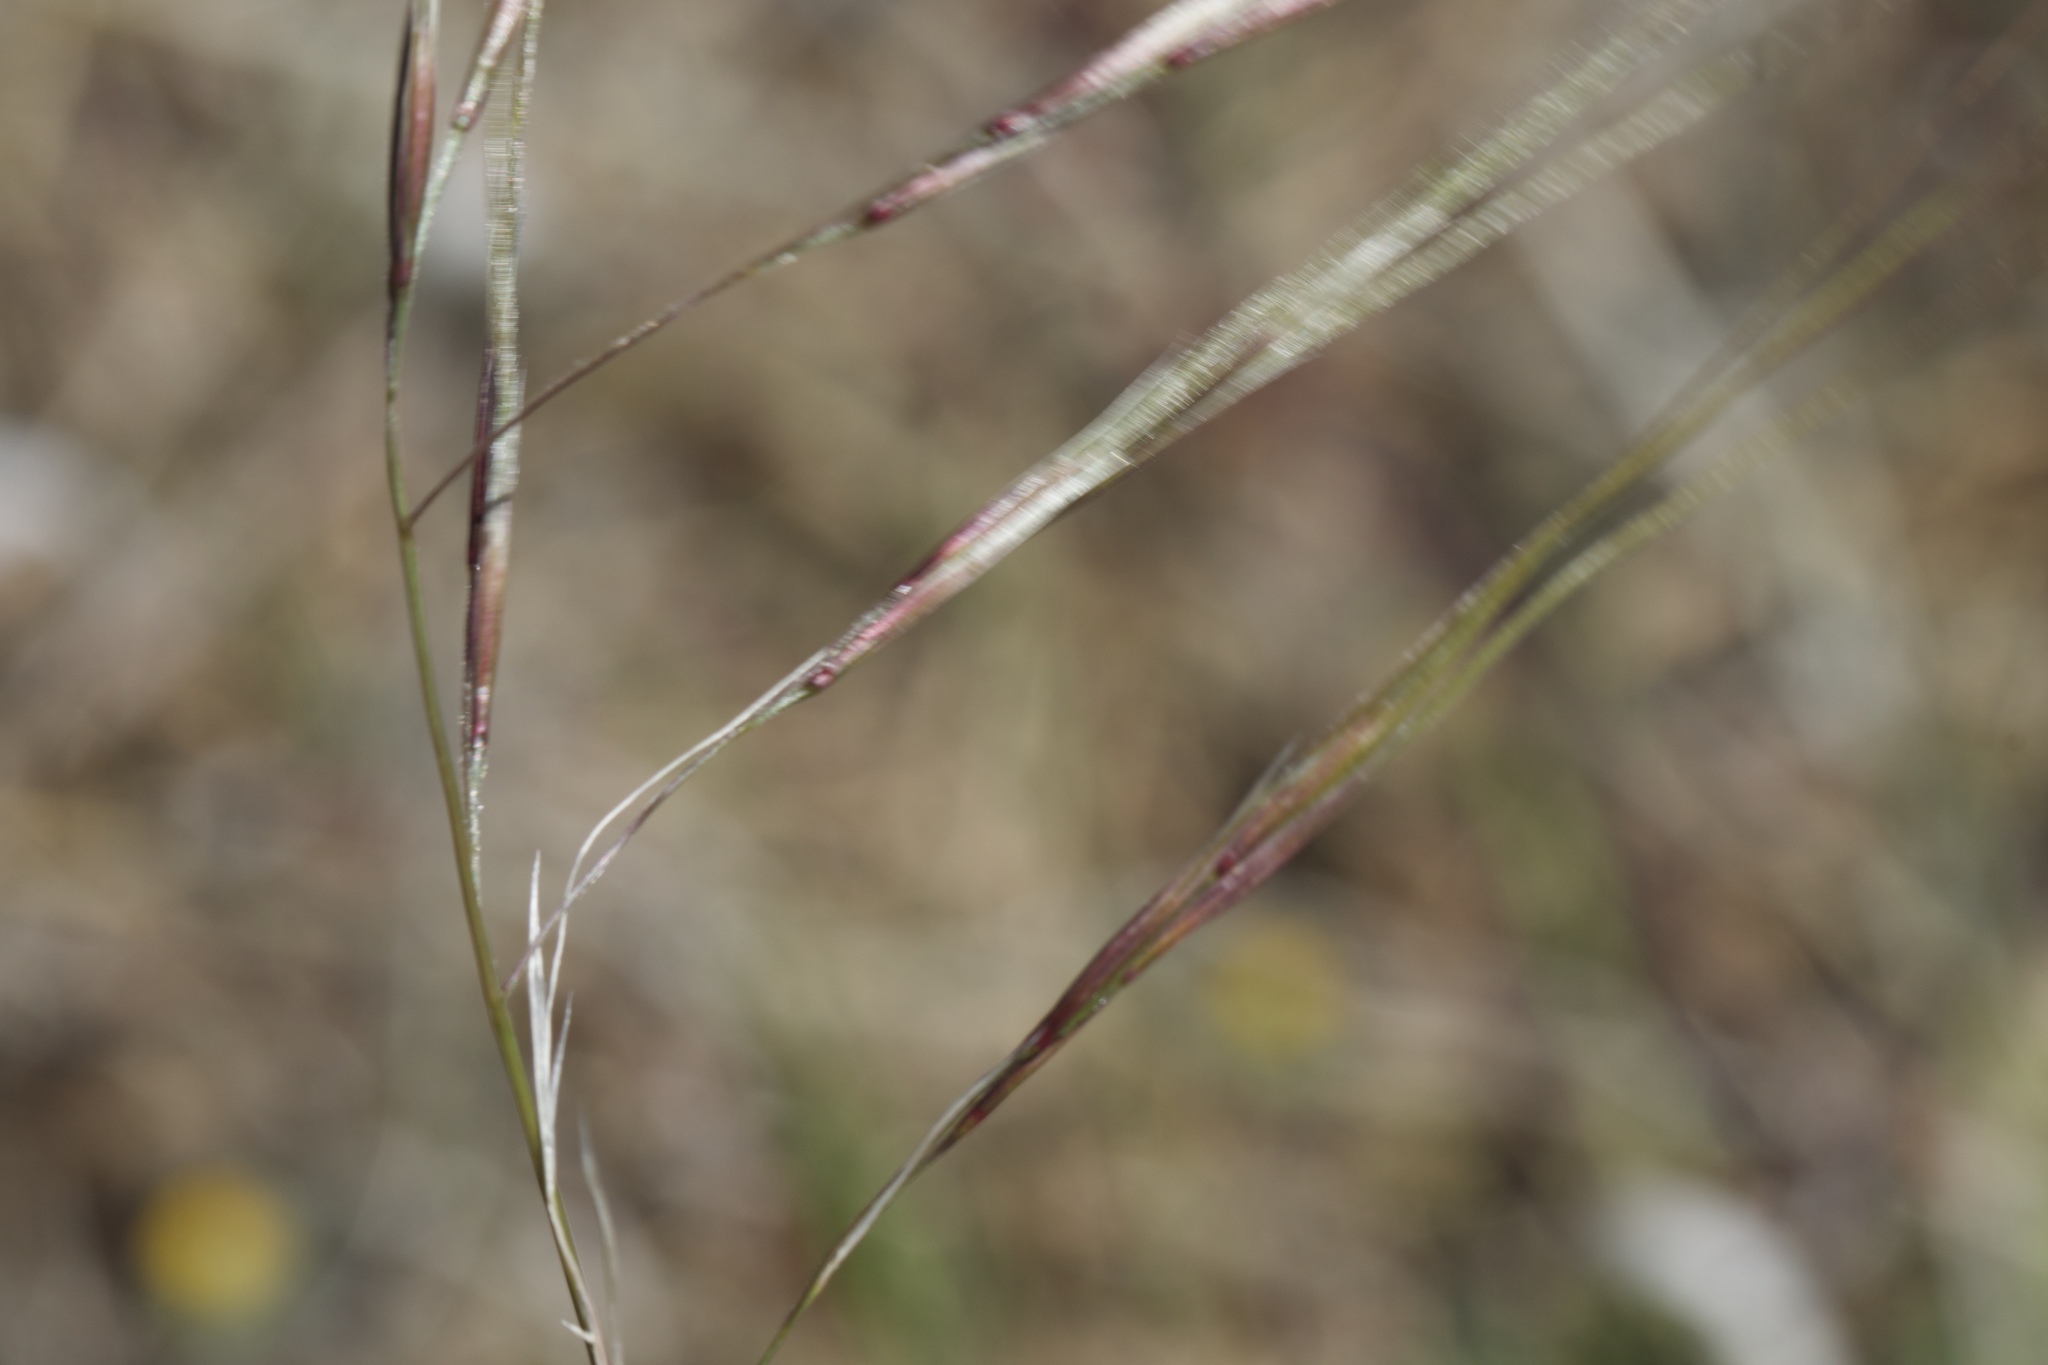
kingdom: Plantae
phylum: Tracheophyta
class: Liliopsida
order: Poales
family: Poaceae
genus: Nassella
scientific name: Nassella pulchra
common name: Purple needlegrass
